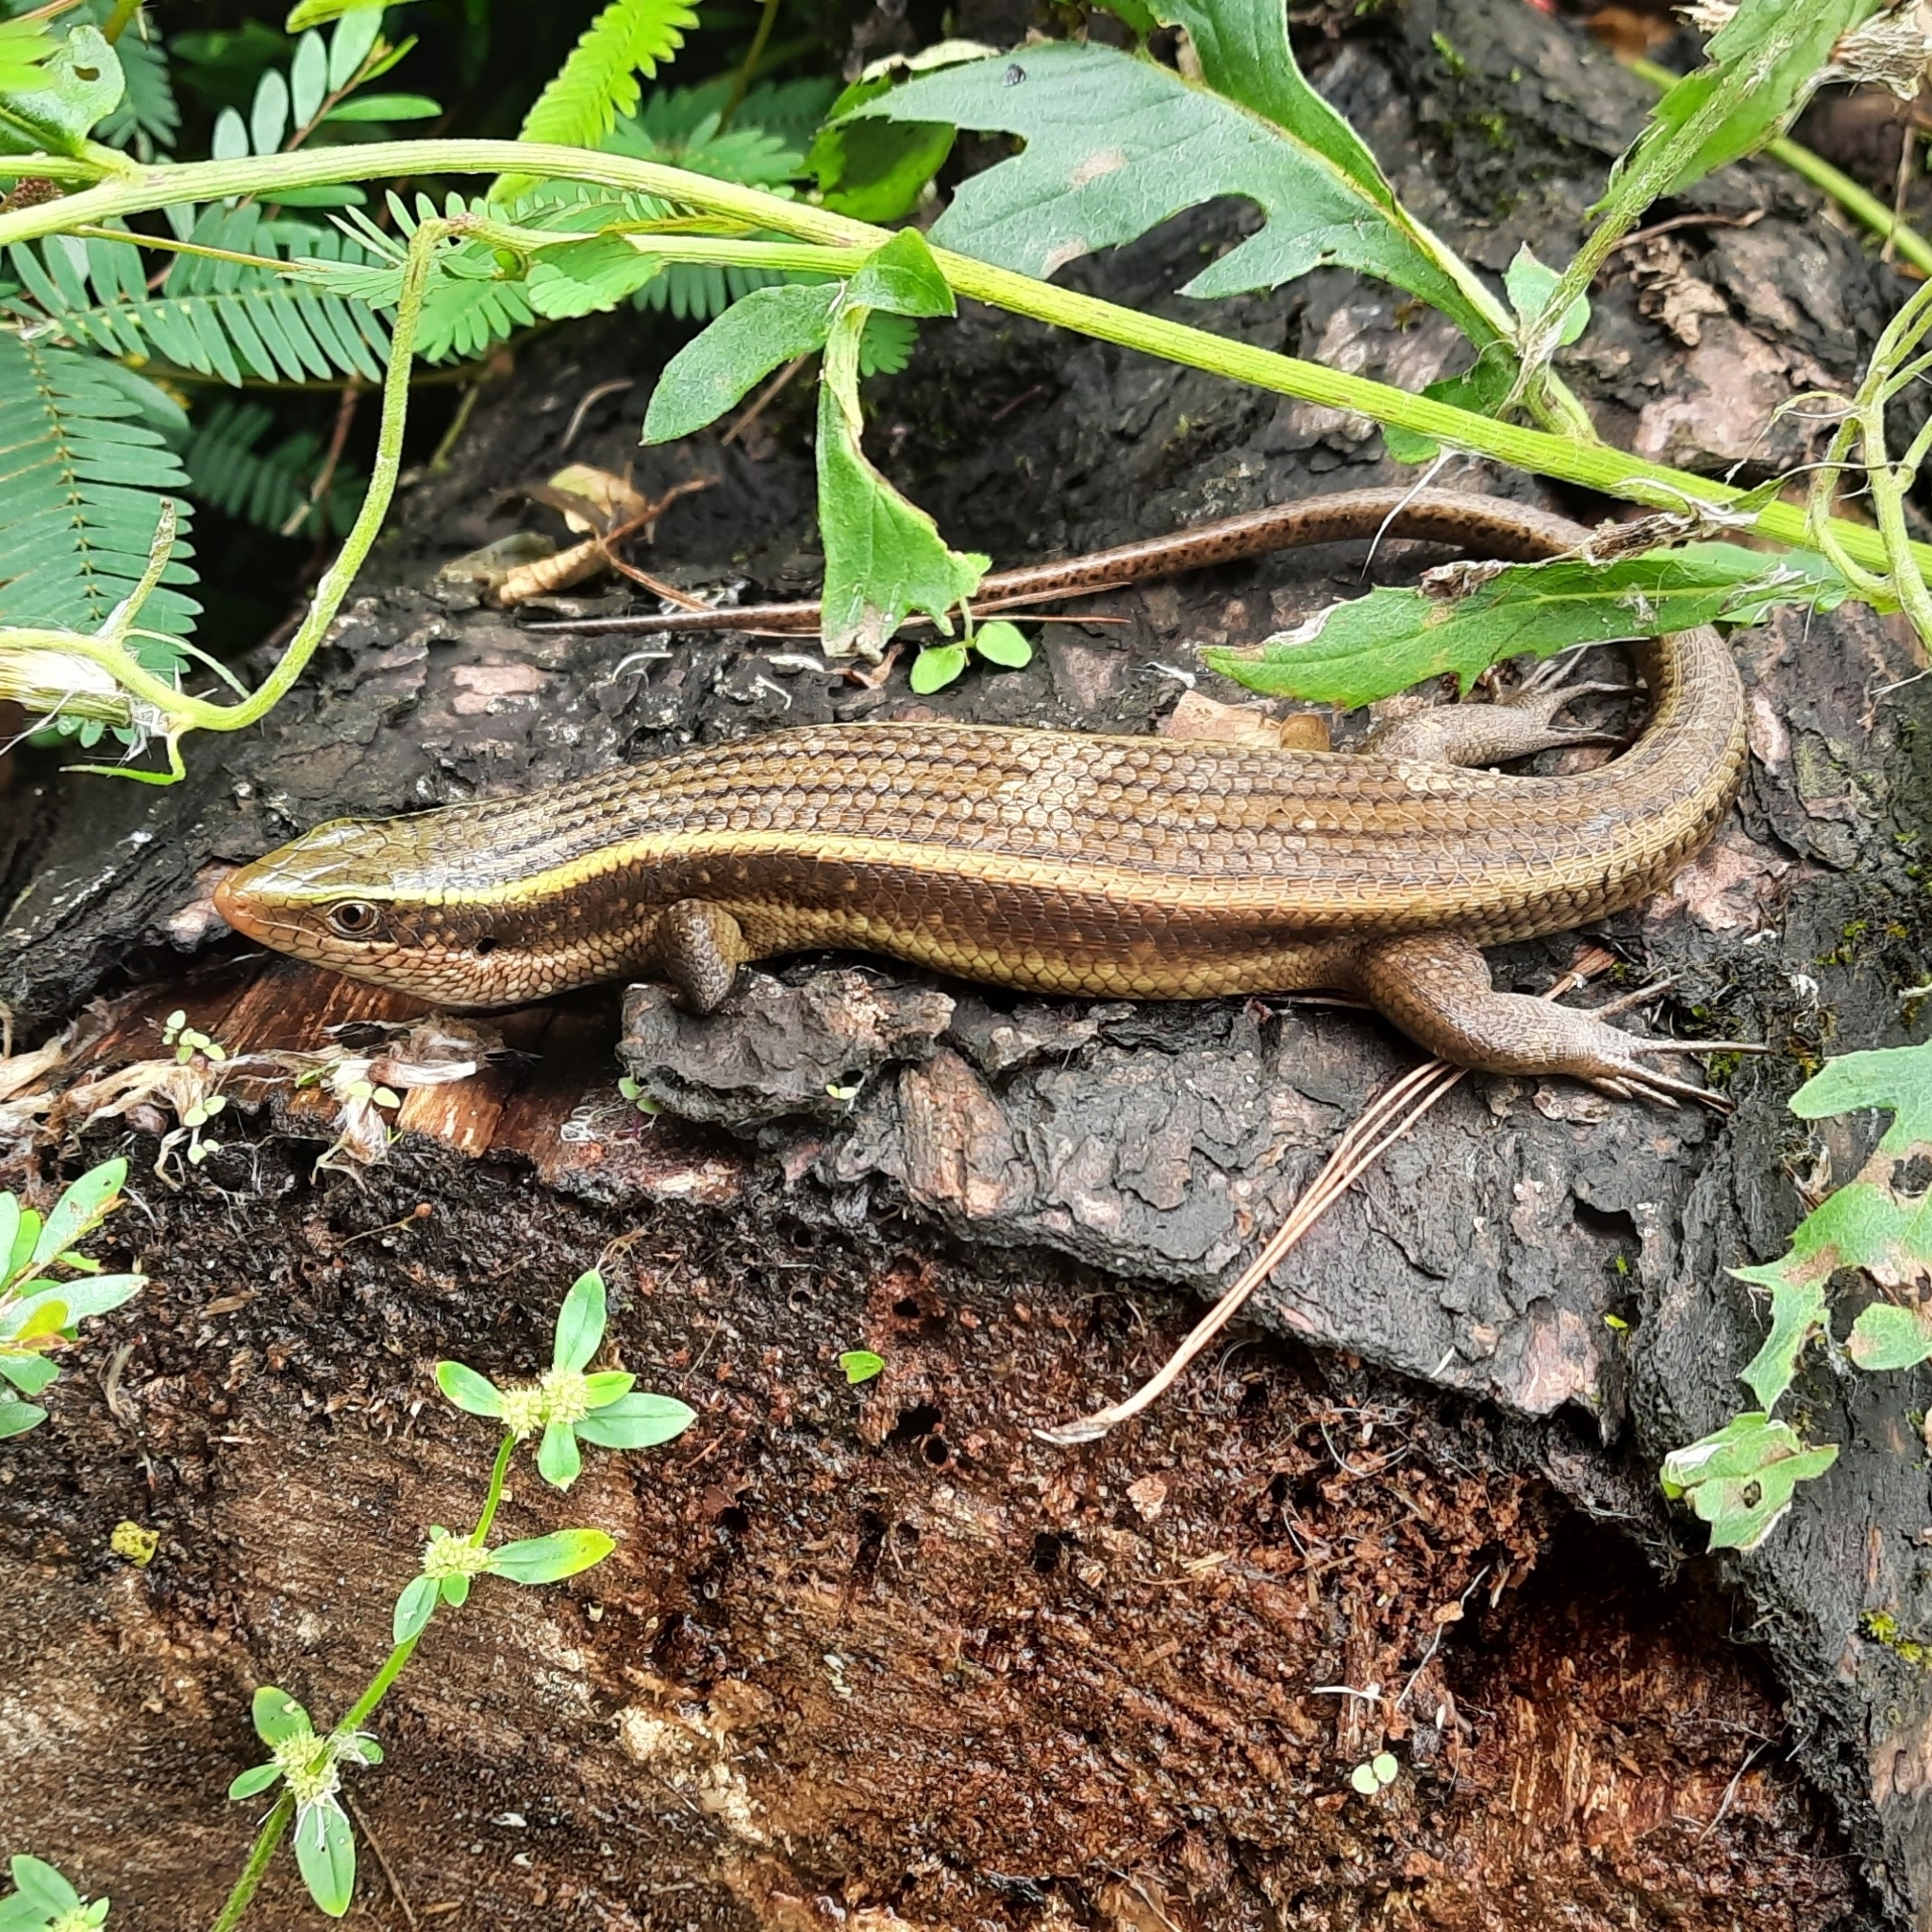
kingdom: Animalia
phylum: Chordata
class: Squamata
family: Scincidae
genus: Eutropis
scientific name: Eutropis carinata
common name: Keeled indian mabuya
